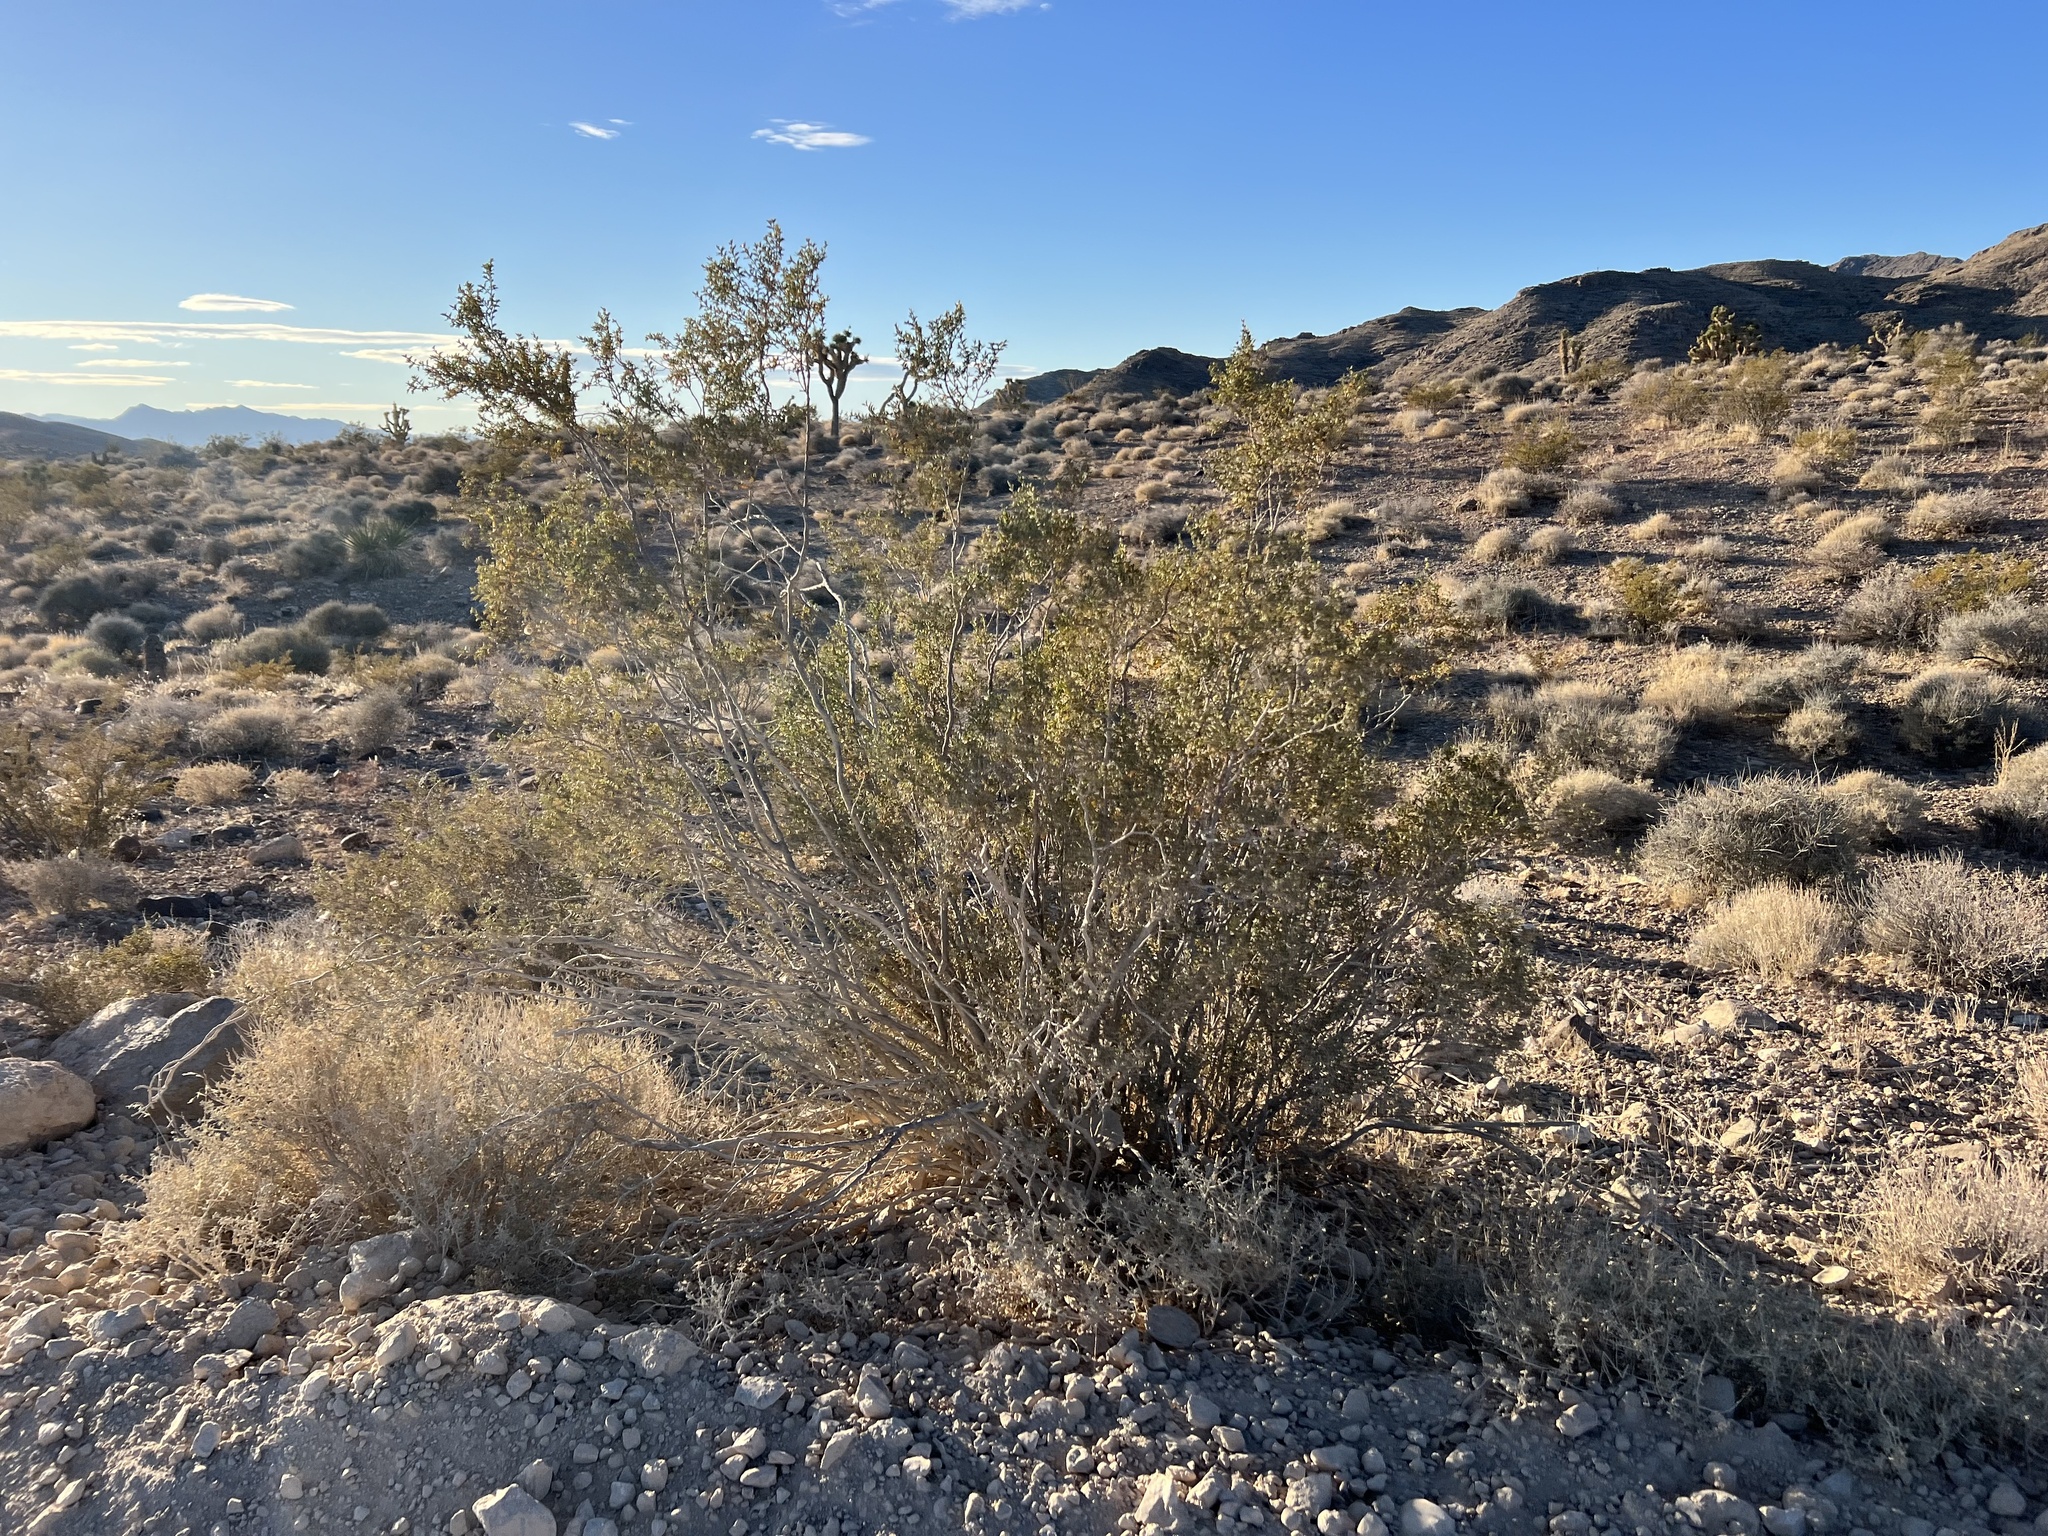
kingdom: Plantae
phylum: Tracheophyta
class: Magnoliopsida
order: Zygophyllales
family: Zygophyllaceae
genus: Larrea
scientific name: Larrea tridentata
